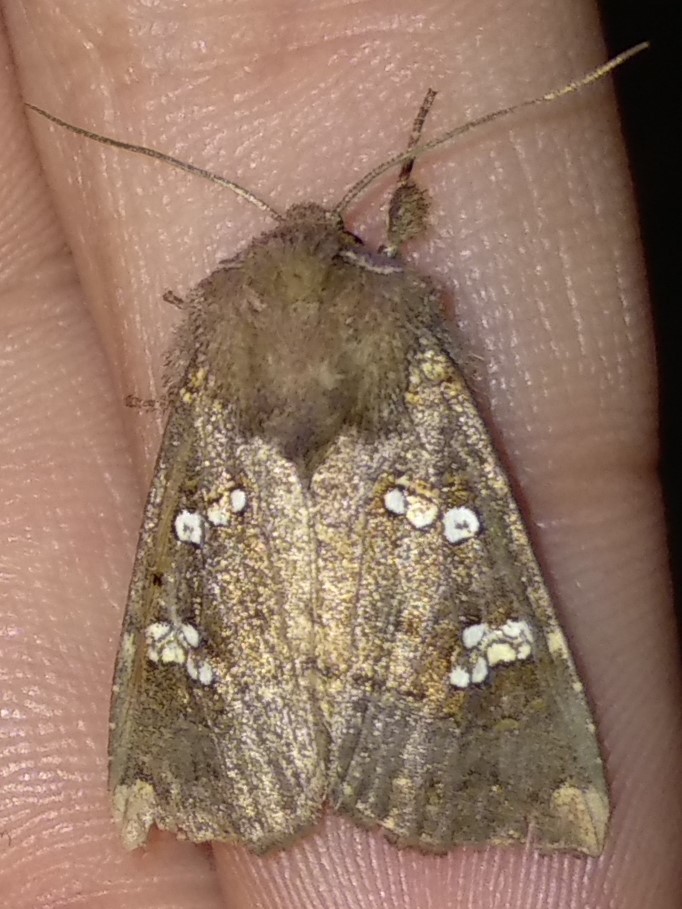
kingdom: Animalia
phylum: Arthropoda
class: Insecta
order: Lepidoptera
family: Noctuidae
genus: Papaipema
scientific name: Papaipema unimoda
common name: Meadow rue borer moth
